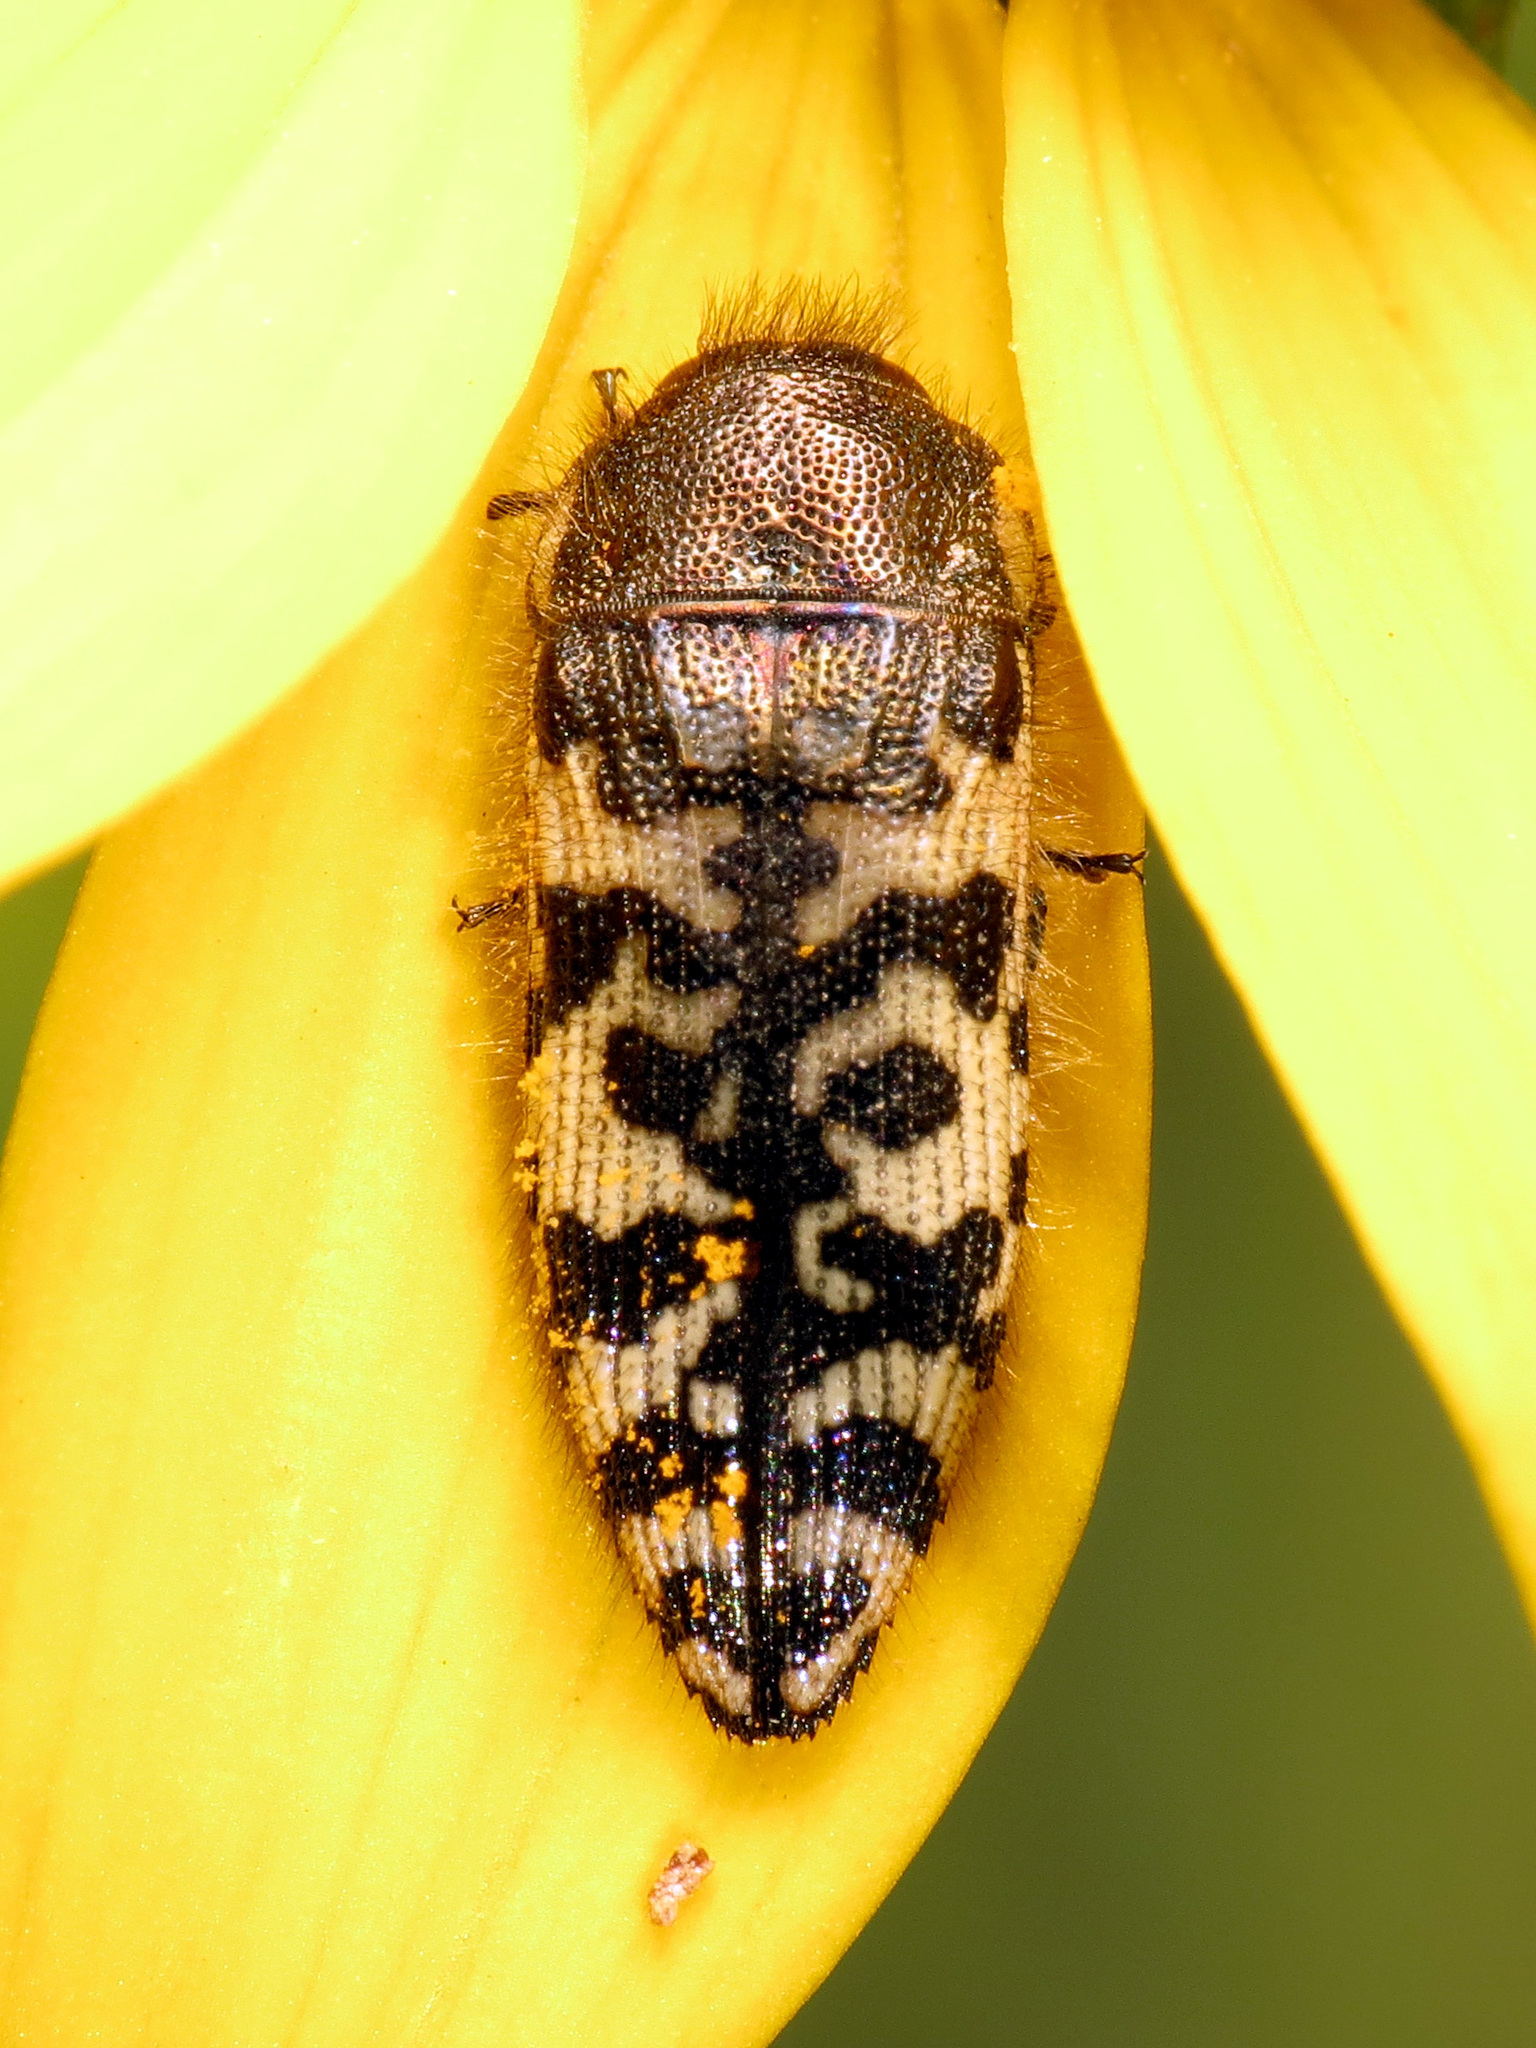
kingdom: Animalia
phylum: Arthropoda
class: Insecta
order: Coleoptera
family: Buprestidae
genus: Acmaeodera
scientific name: Acmaeodera decipiens
